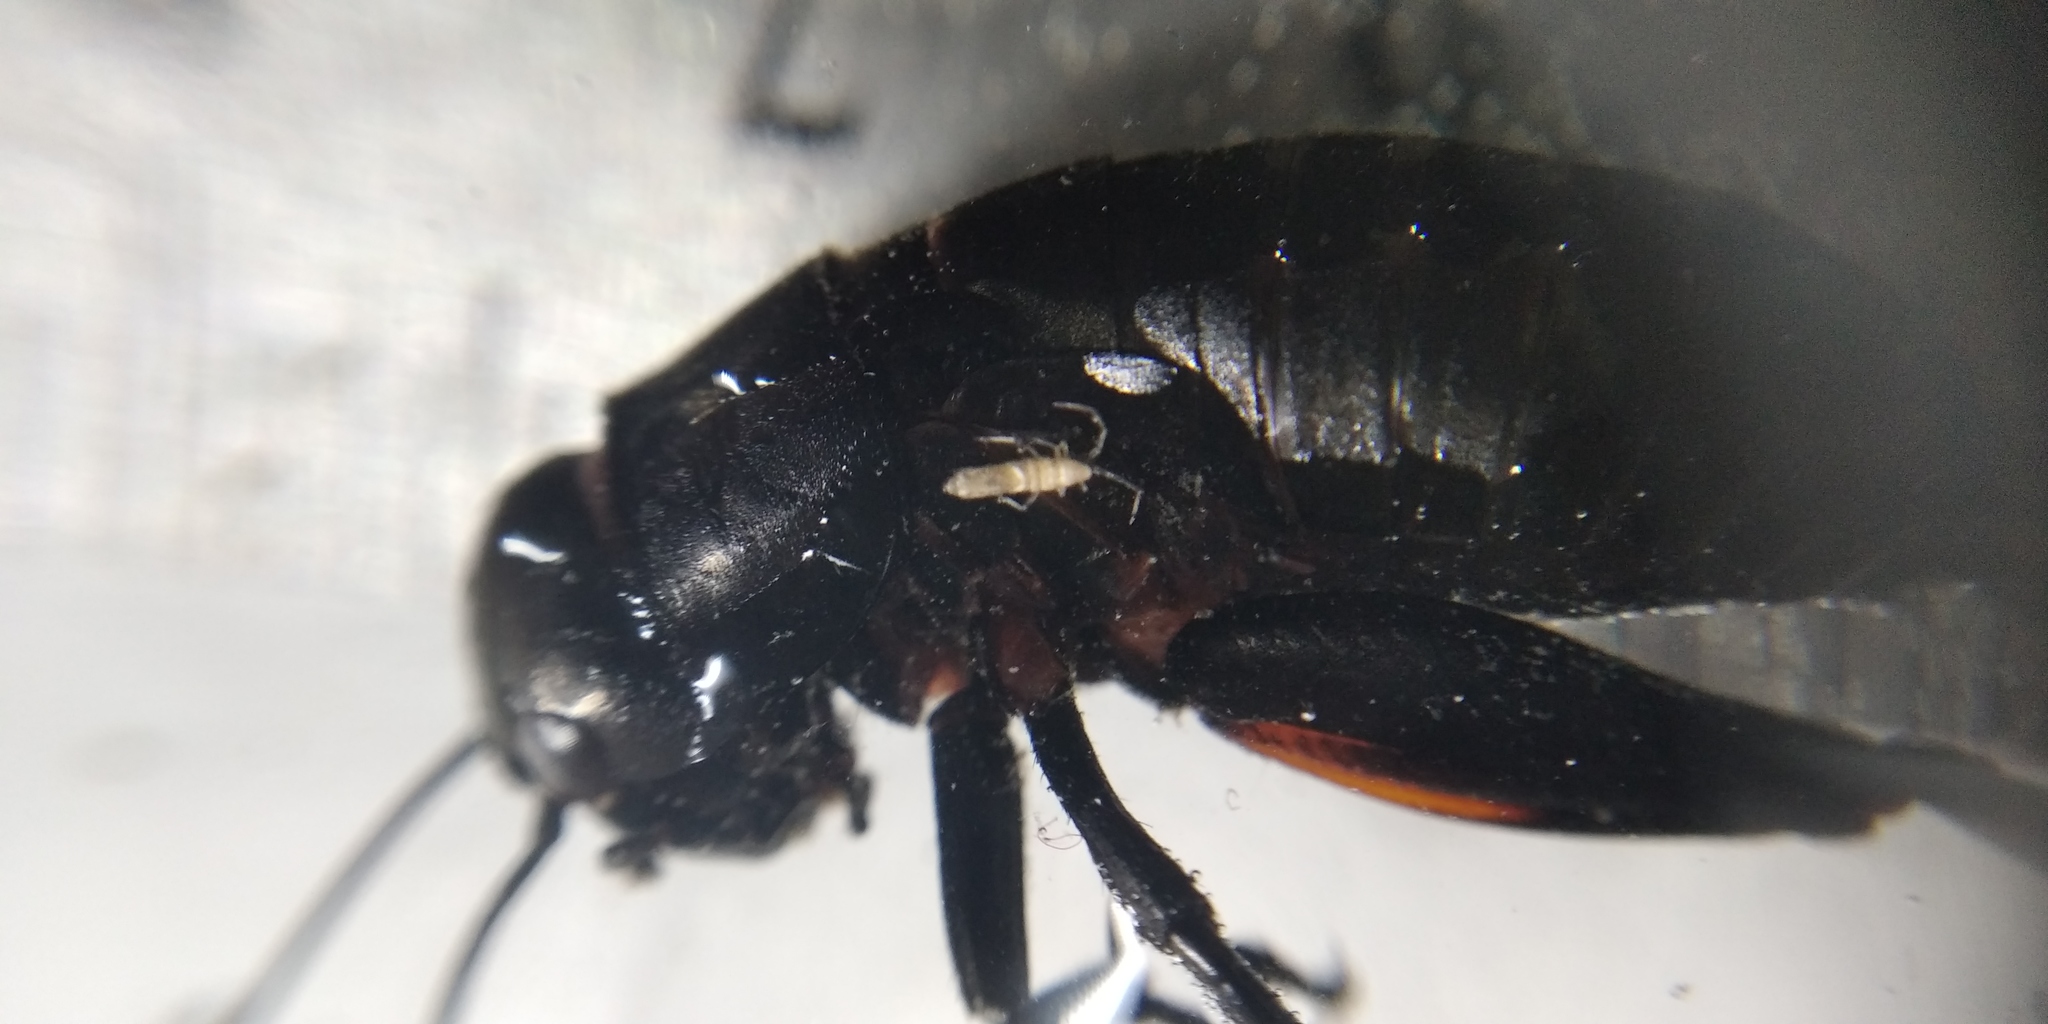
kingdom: Animalia
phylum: Arthropoda
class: Insecta
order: Orthoptera
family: Gryllidae
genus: Gryllus
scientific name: Gryllus campestris
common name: Field cricket
